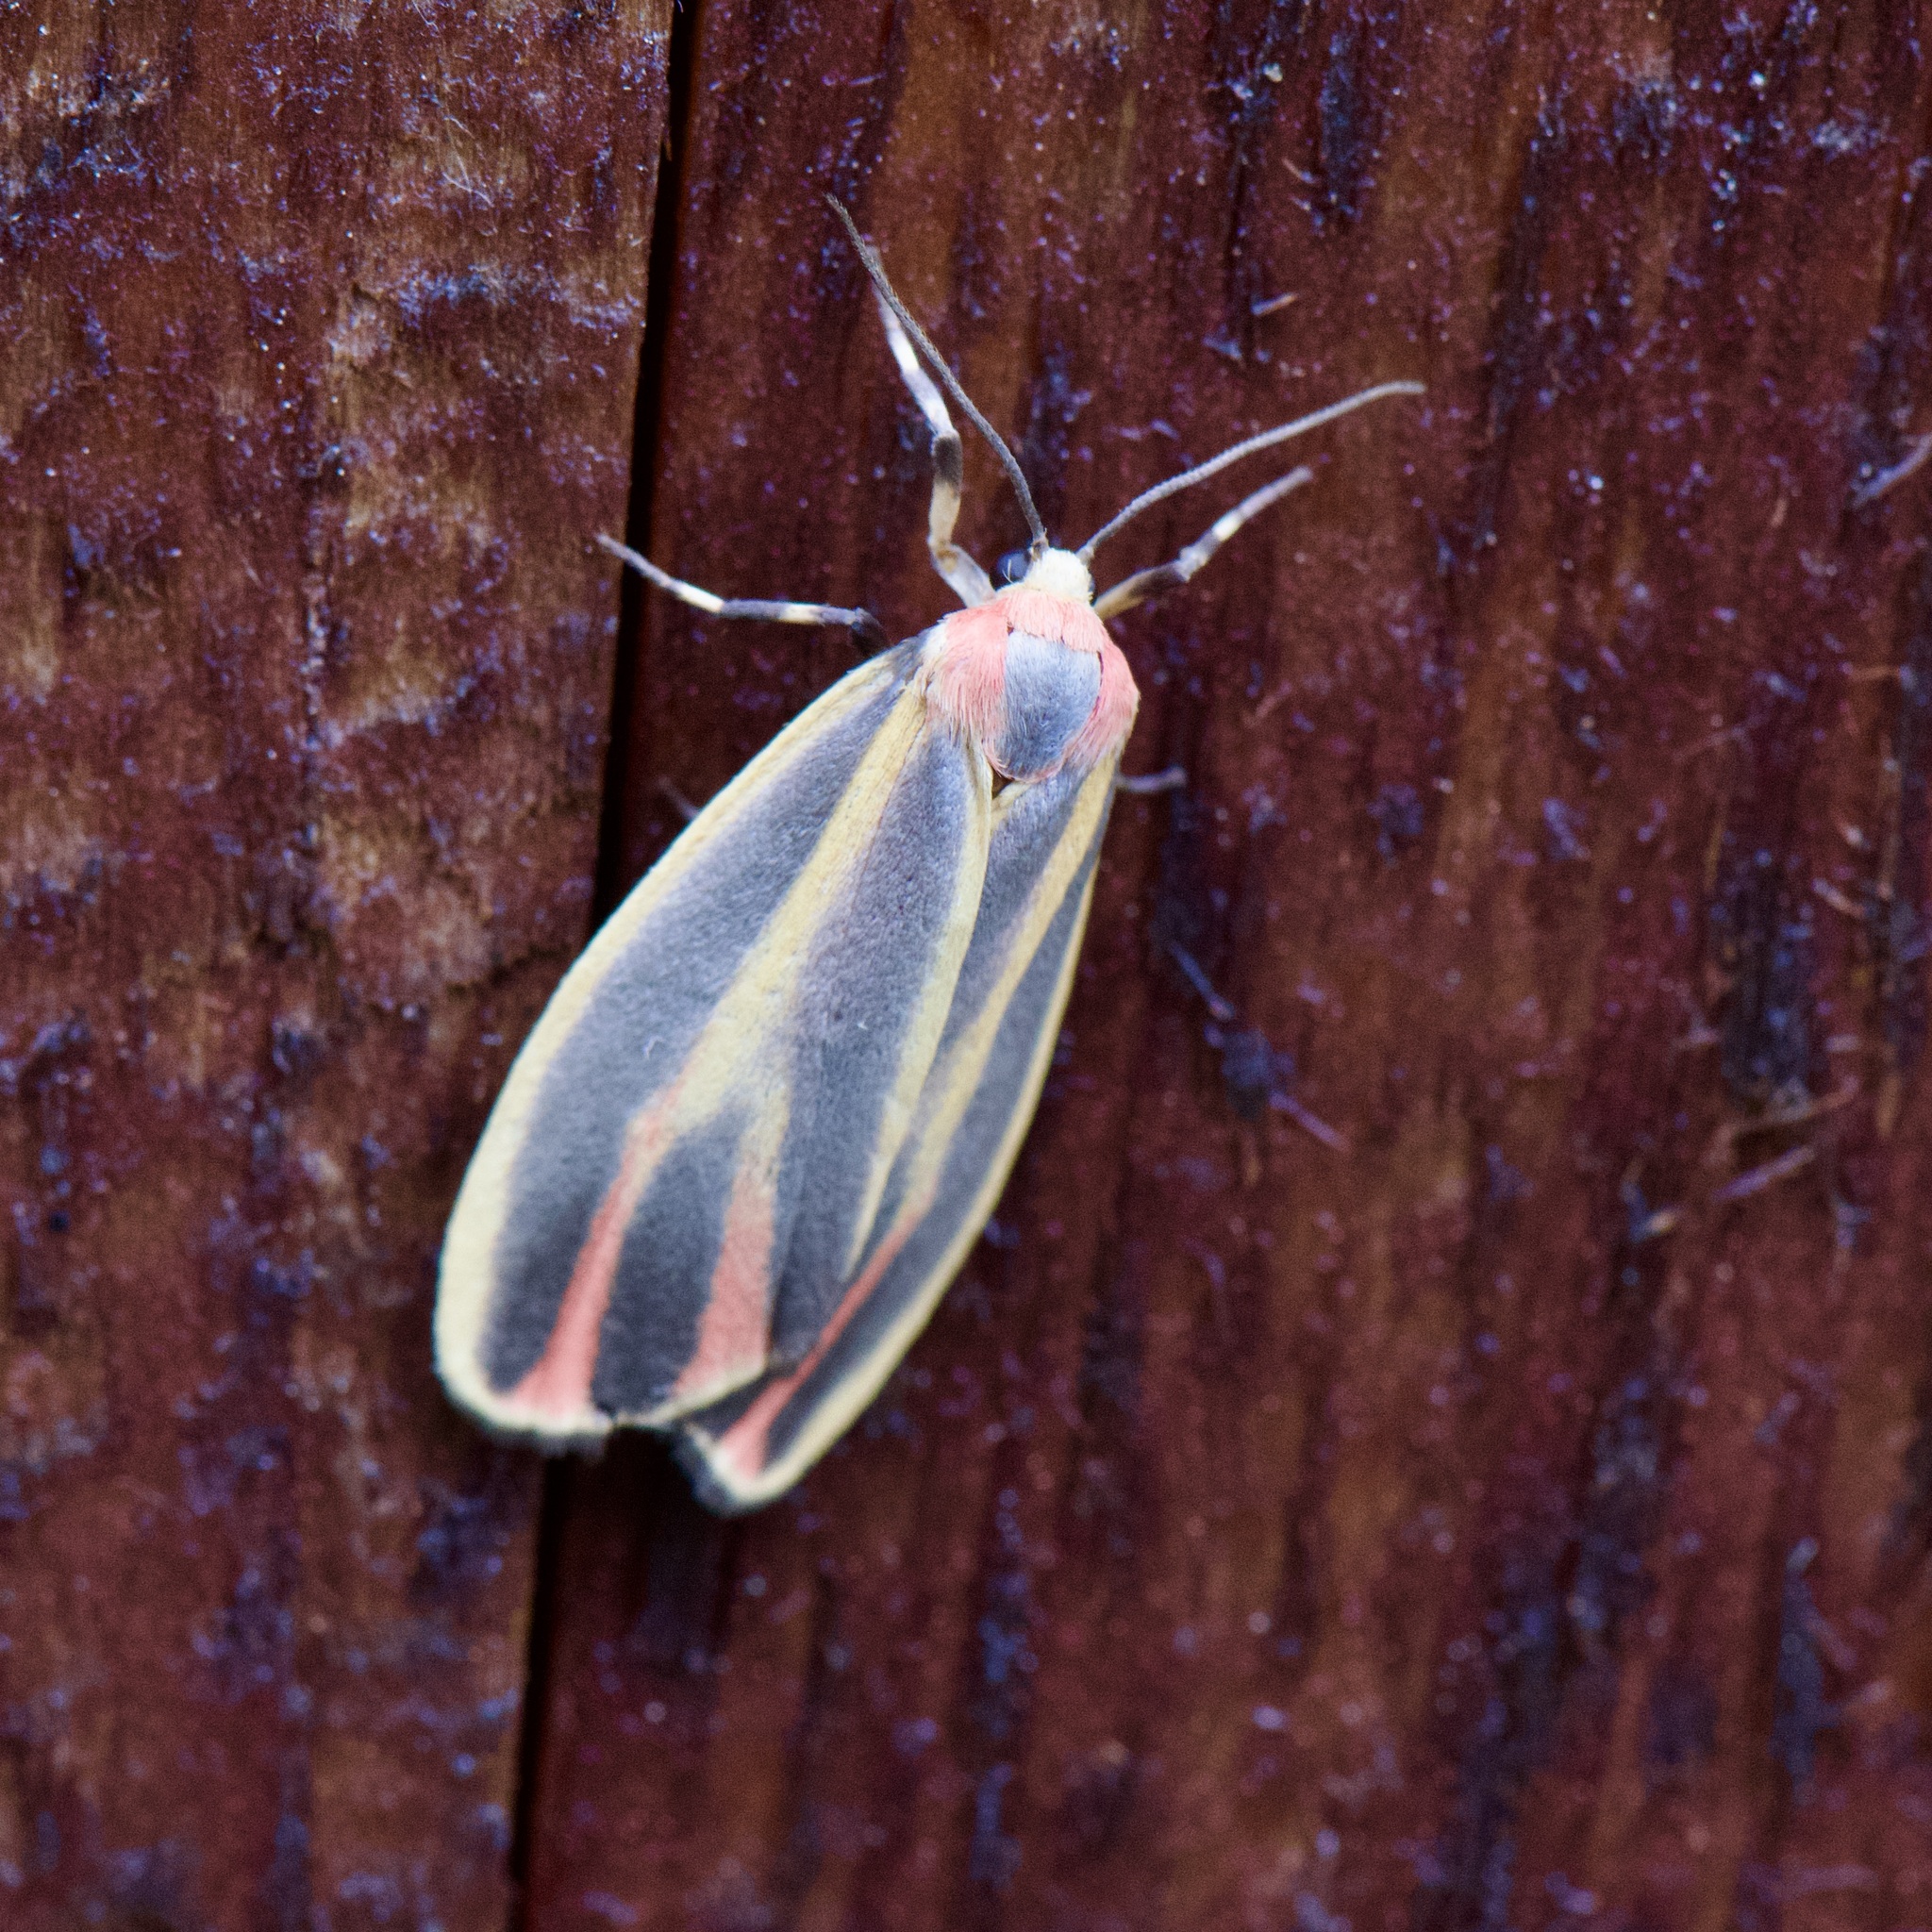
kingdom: Animalia
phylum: Arthropoda
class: Insecta
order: Lepidoptera
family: Erebidae
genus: Hypoprepia
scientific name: Hypoprepia fucosa
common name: Painted lichen moth
